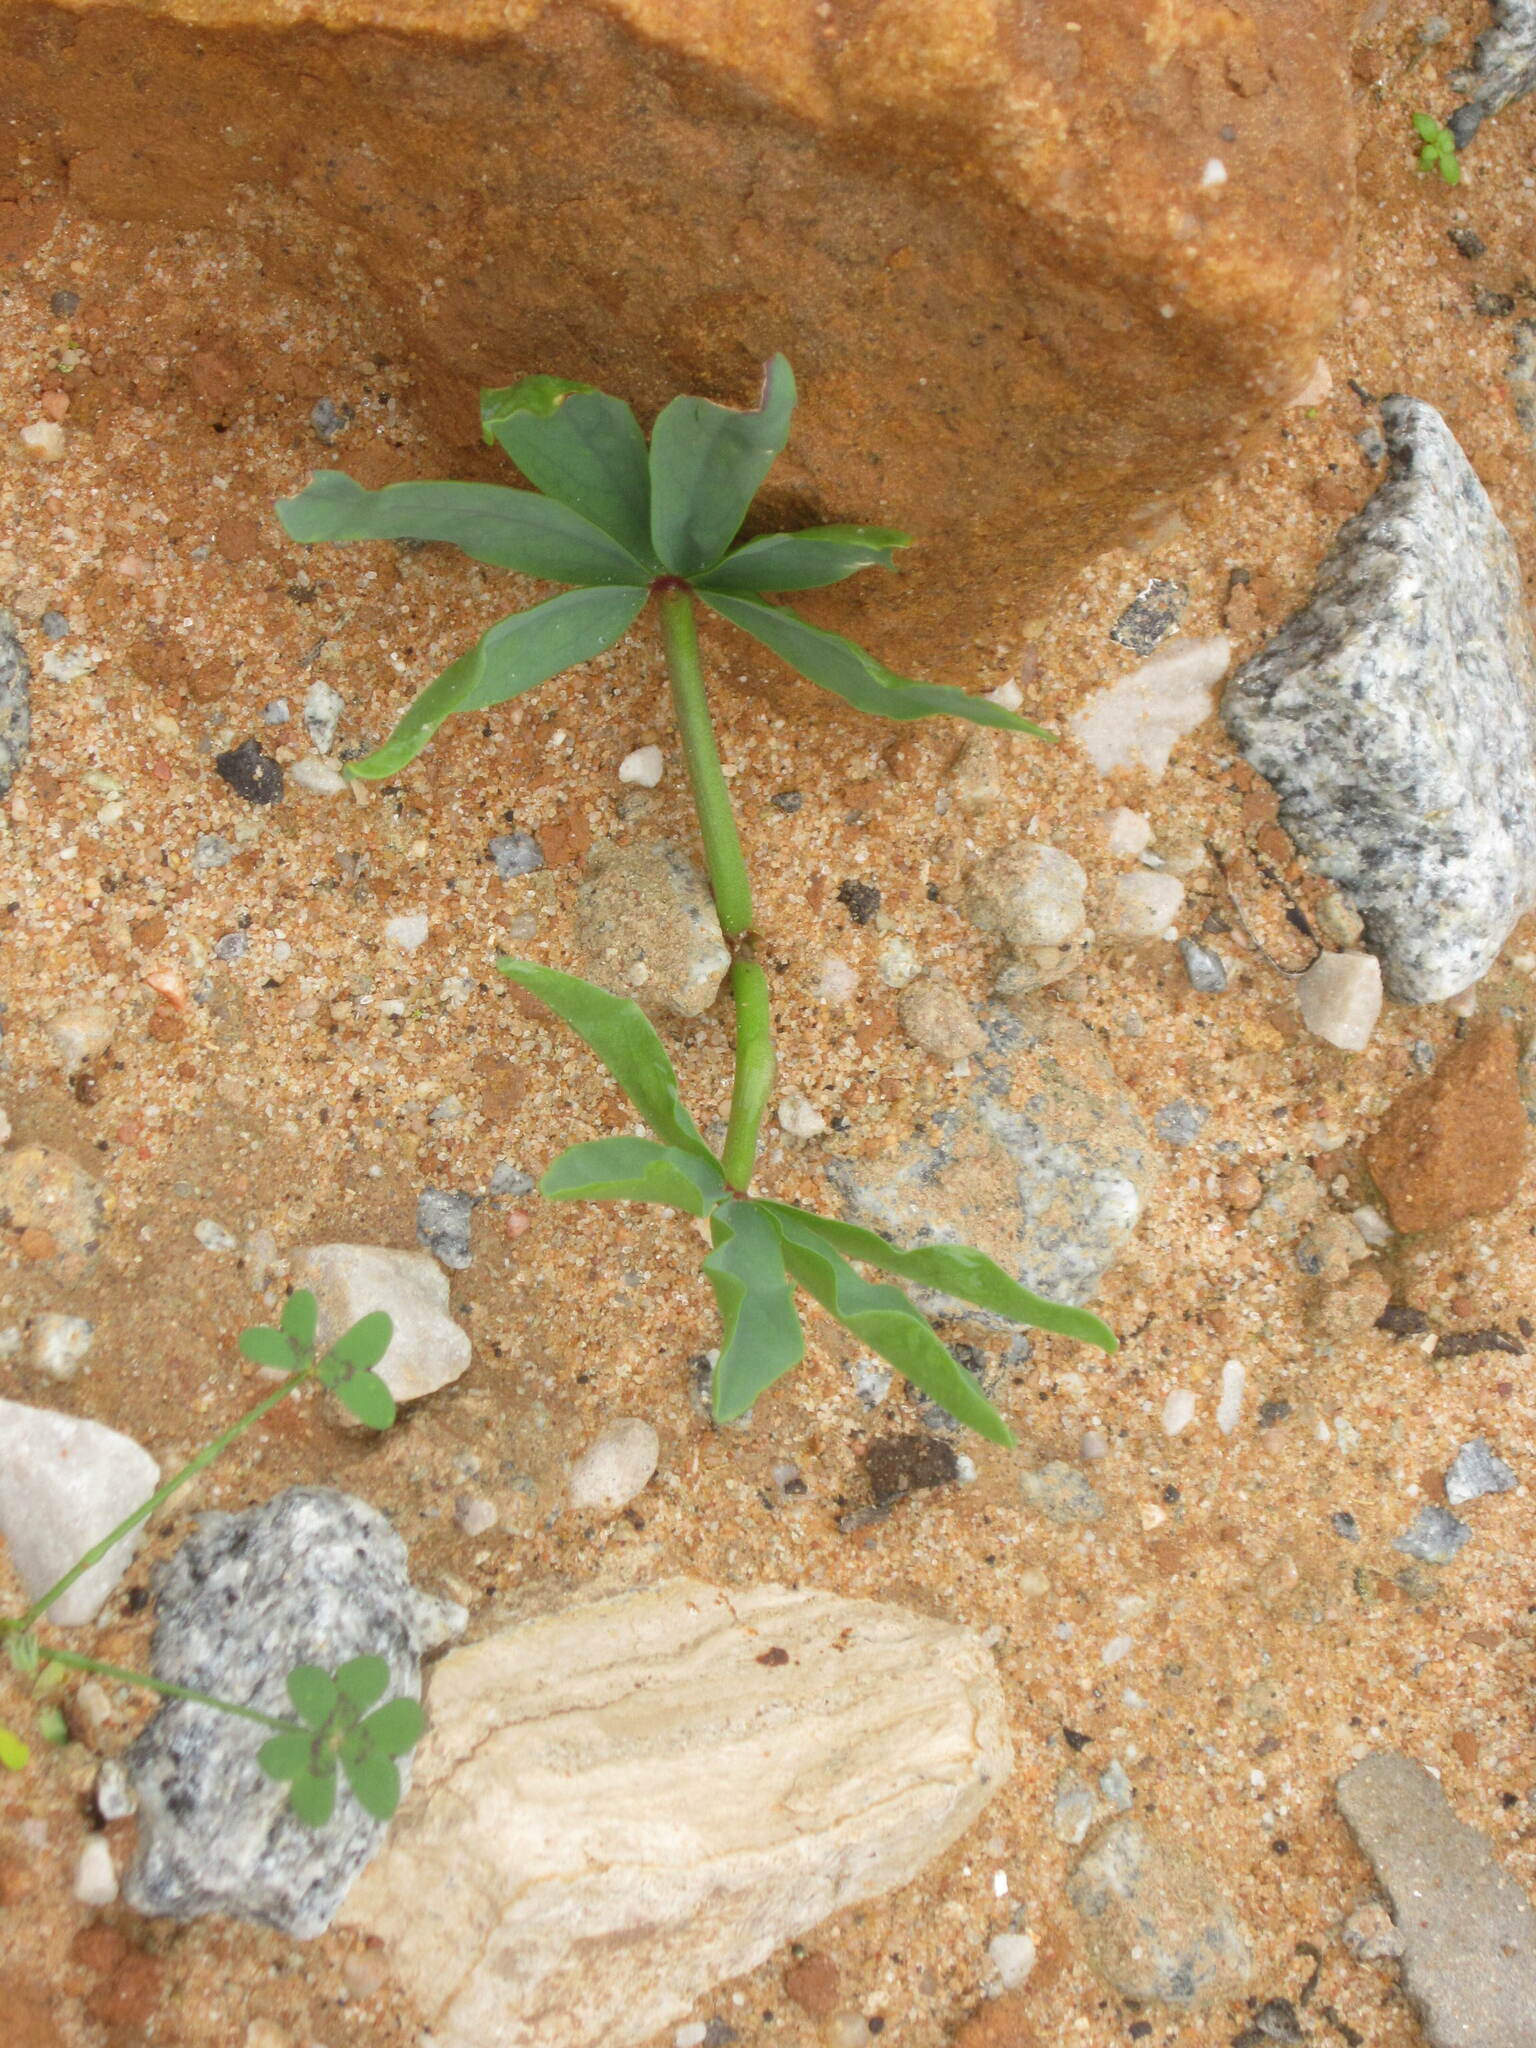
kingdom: Plantae
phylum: Tracheophyta
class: Magnoliopsida
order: Oxalidales
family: Oxalidaceae
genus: Oxalis
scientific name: Oxalis flava
